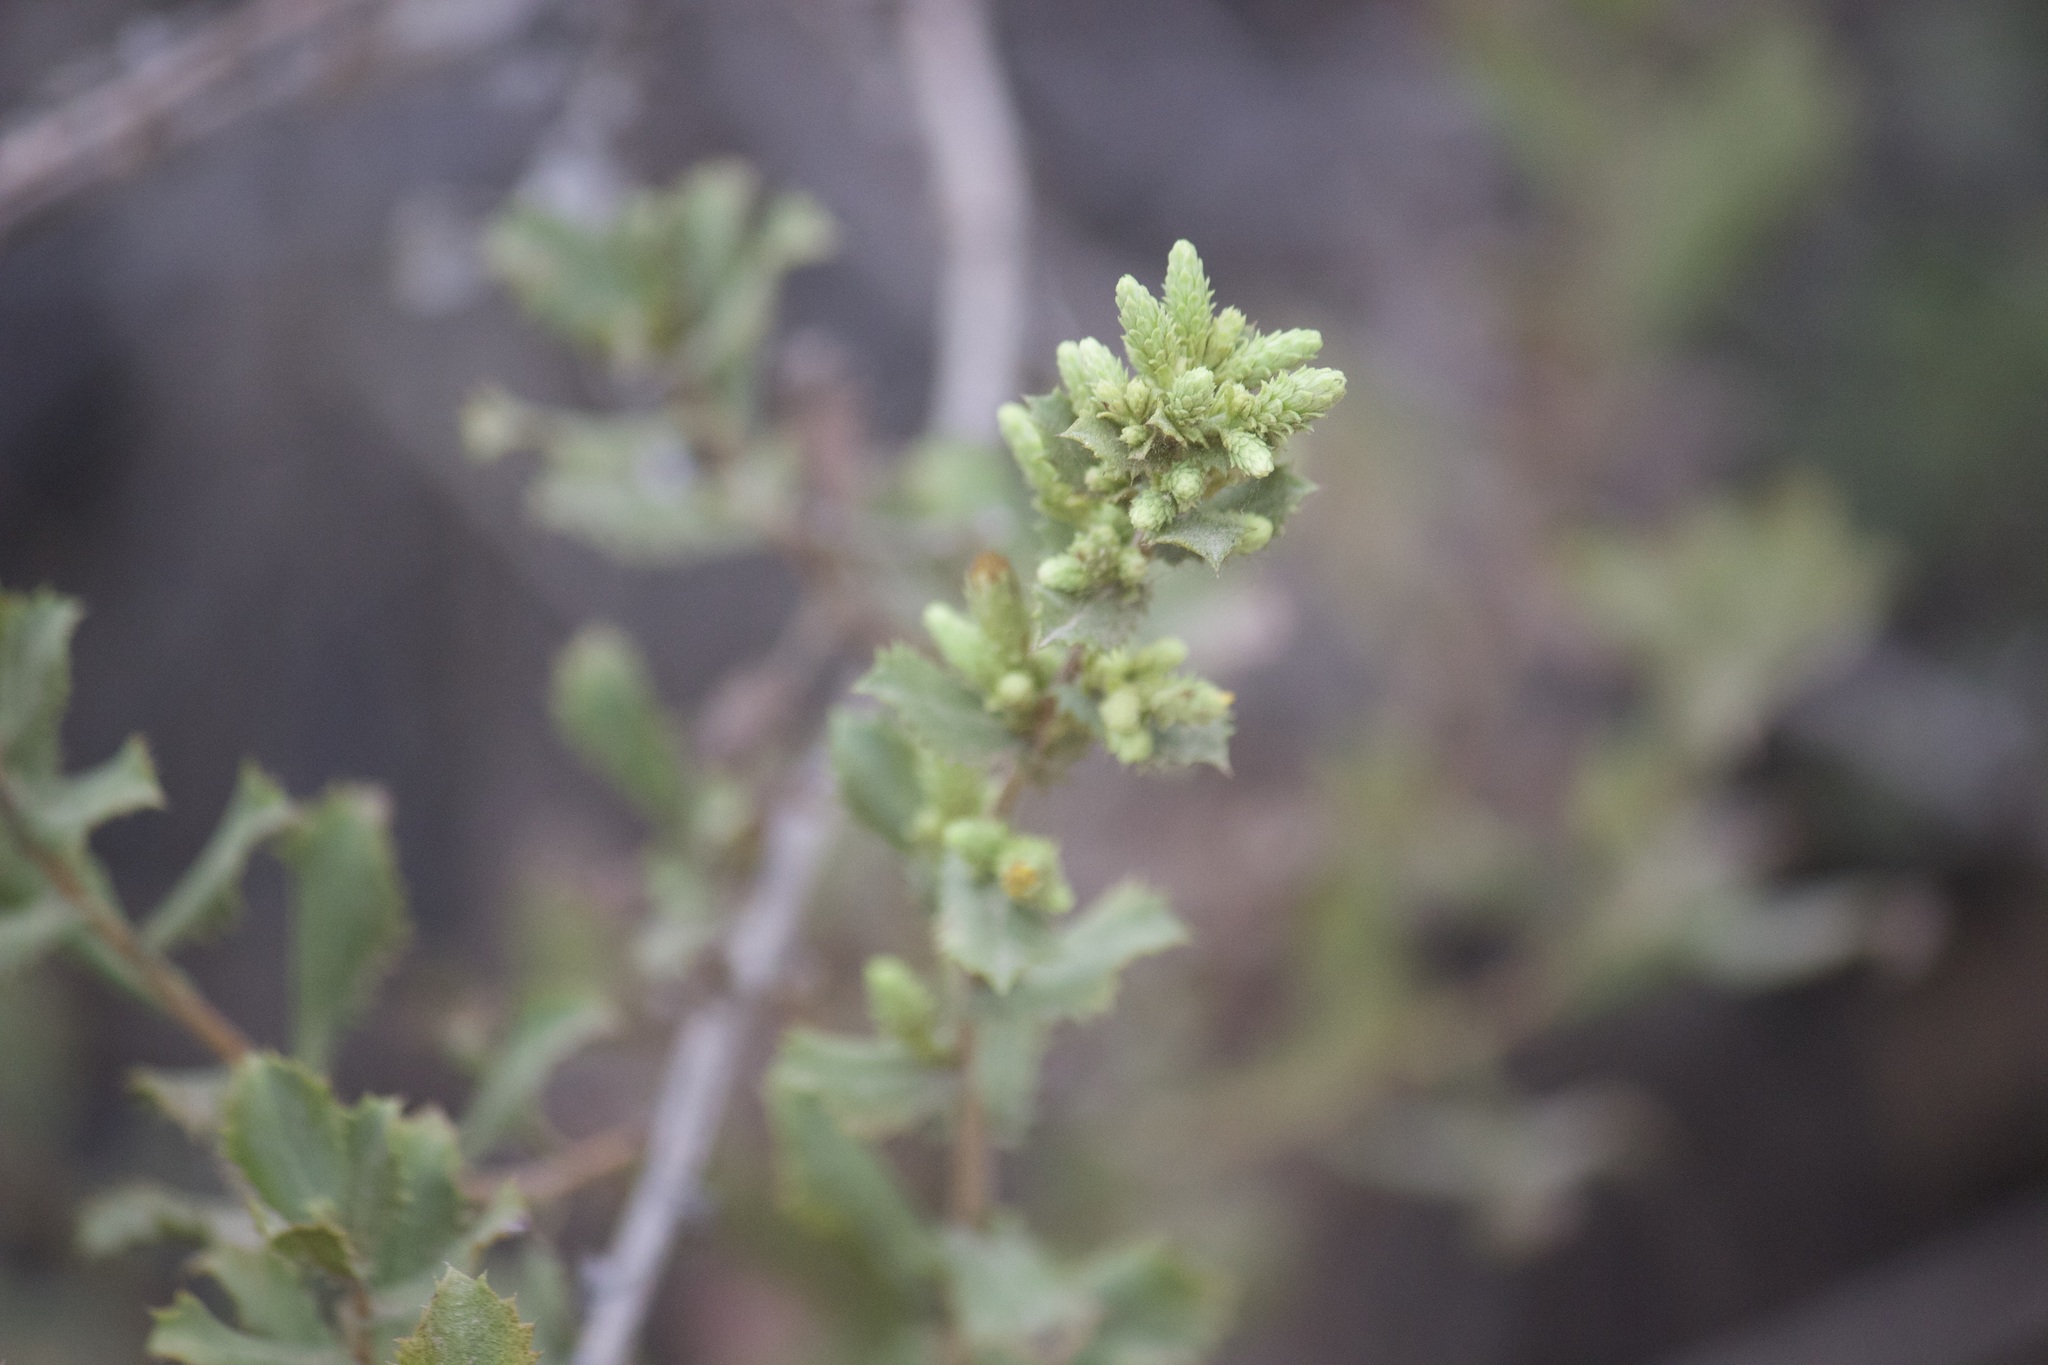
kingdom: Plantae
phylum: Tracheophyta
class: Magnoliopsida
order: Asterales
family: Asteraceae
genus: Hazardia
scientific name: Hazardia squarrosa
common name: Saw-tooth goldenbush
